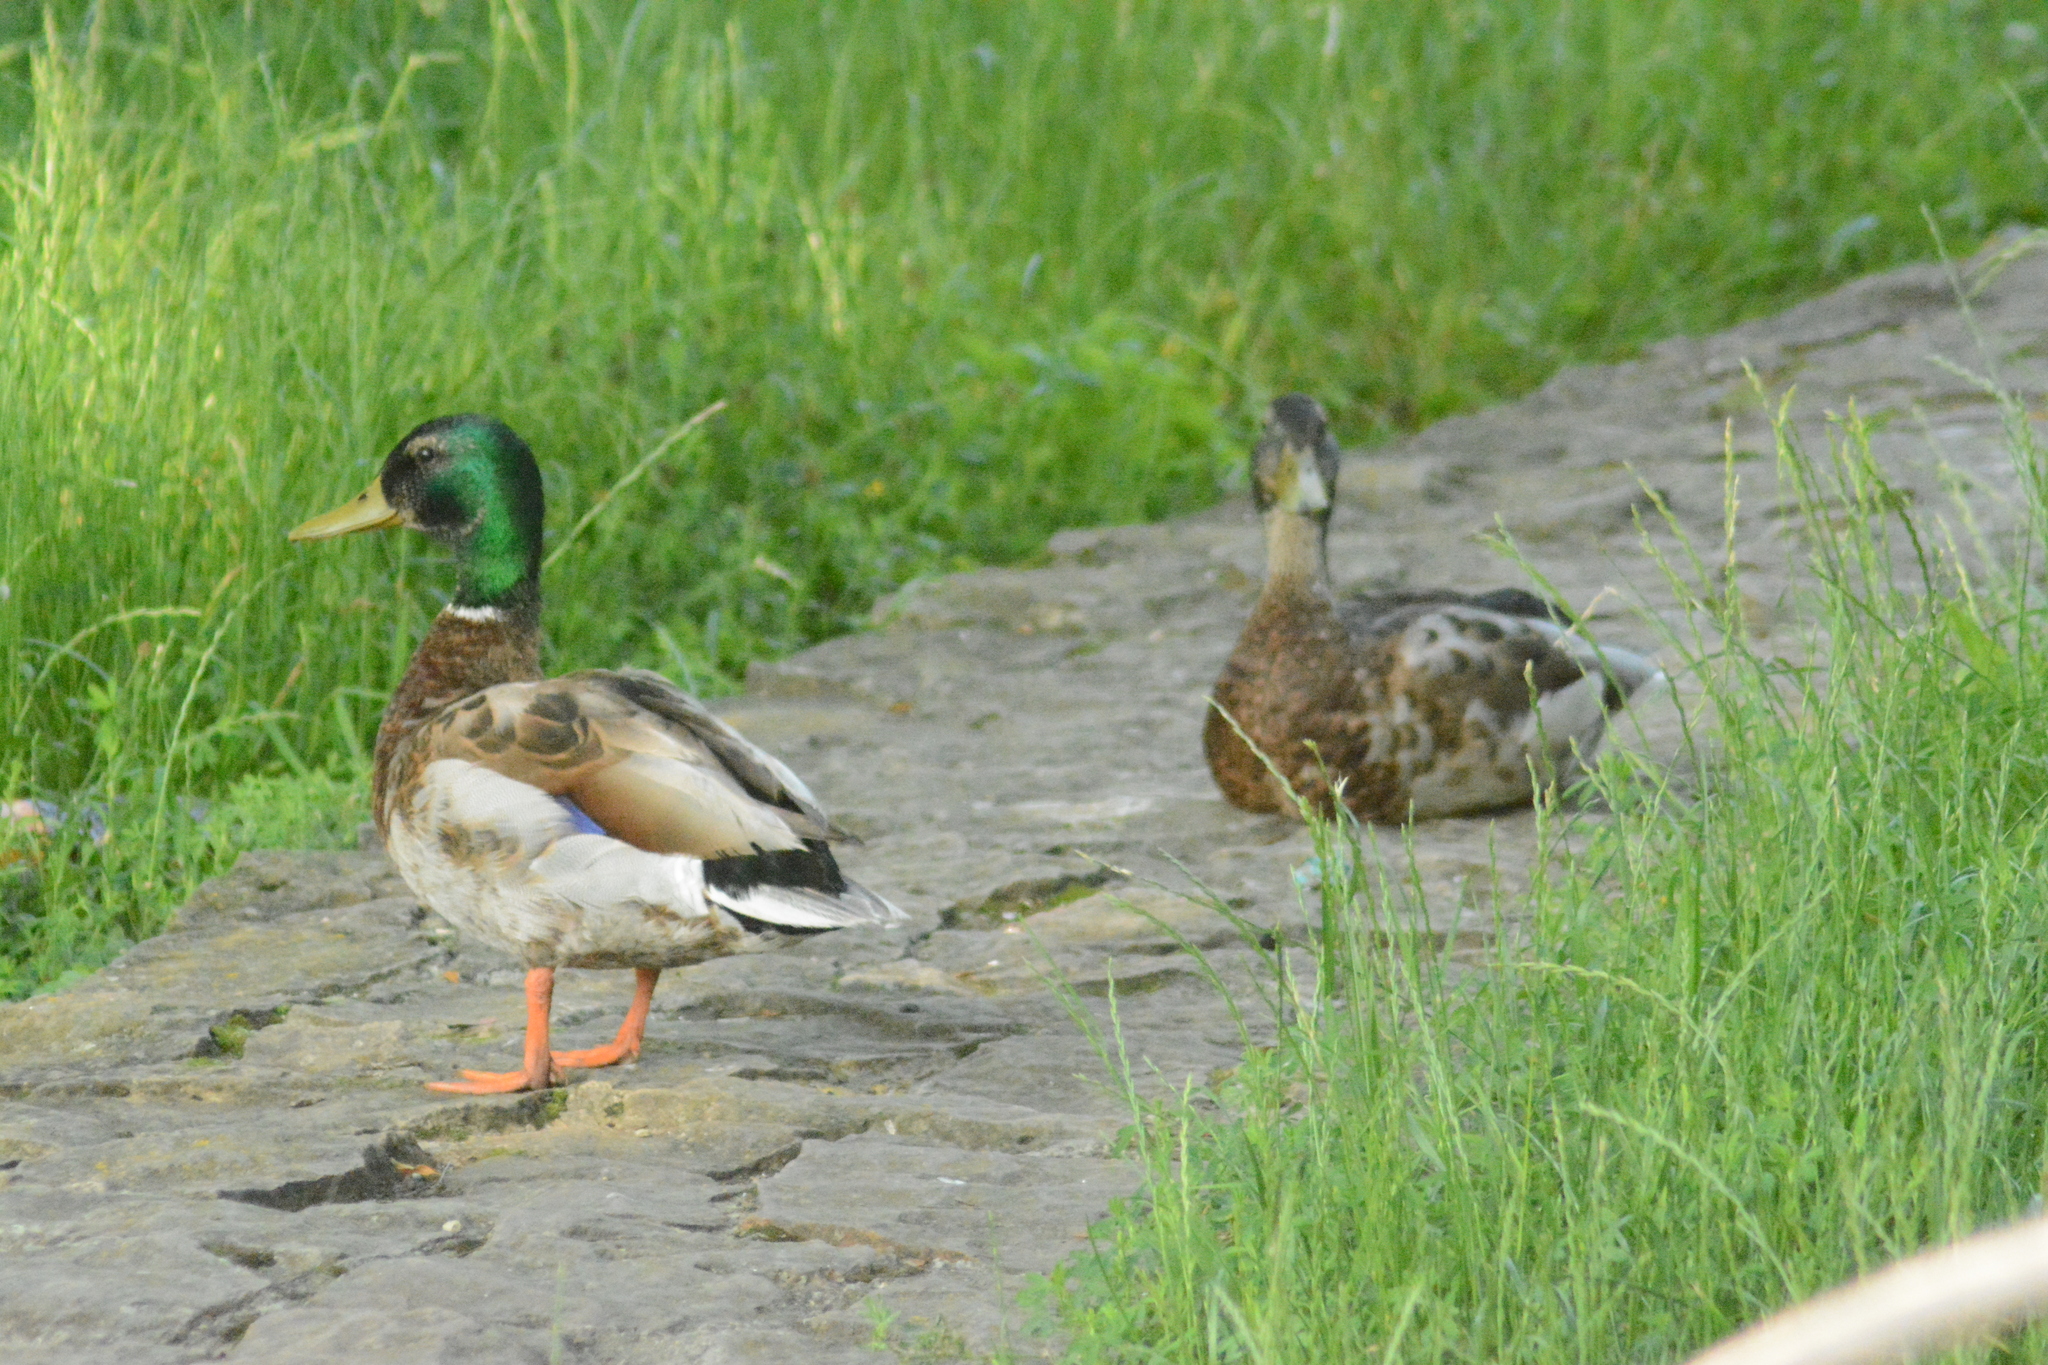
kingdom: Animalia
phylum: Chordata
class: Aves
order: Anseriformes
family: Anatidae
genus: Anas
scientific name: Anas platyrhynchos
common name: Mallard
